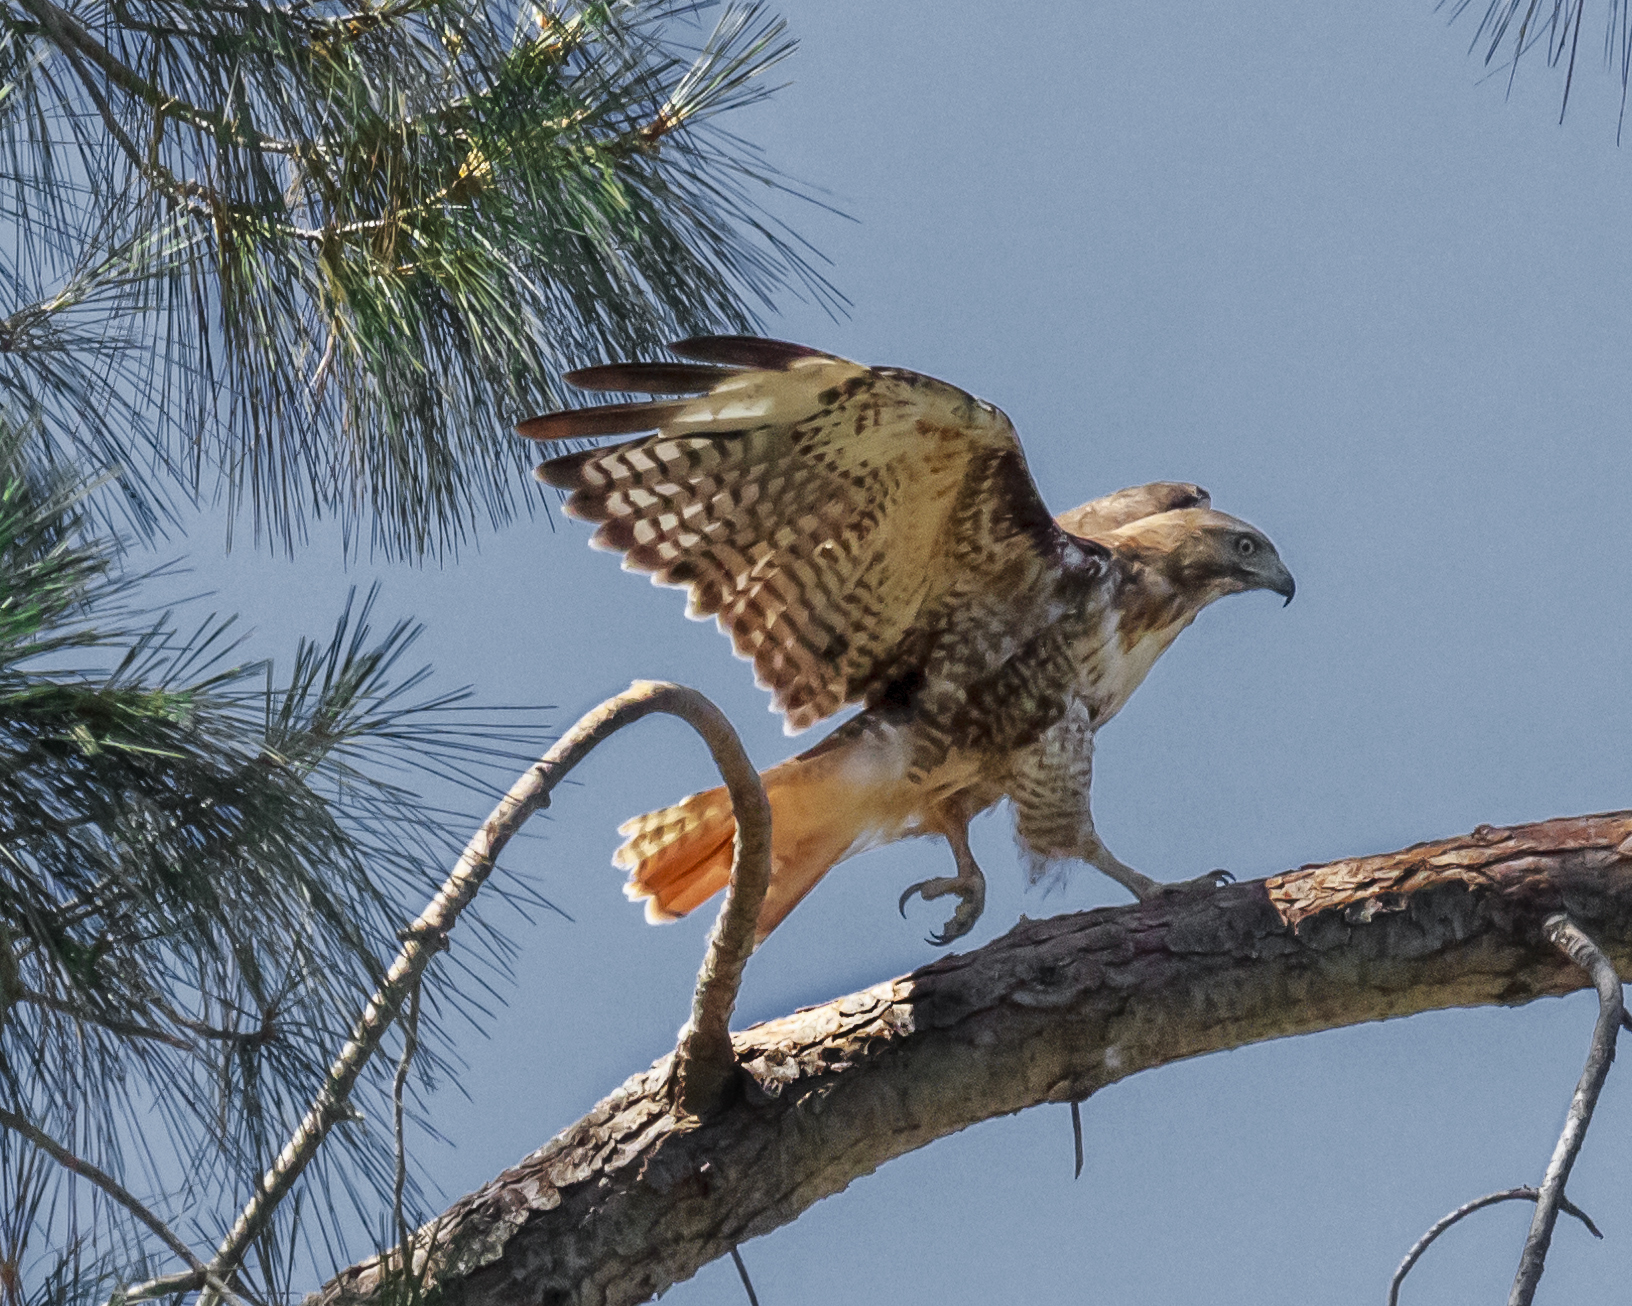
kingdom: Animalia
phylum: Chordata
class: Aves
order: Accipitriformes
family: Accipitridae
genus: Buteo
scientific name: Buteo jamaicensis
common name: Red-tailed hawk
